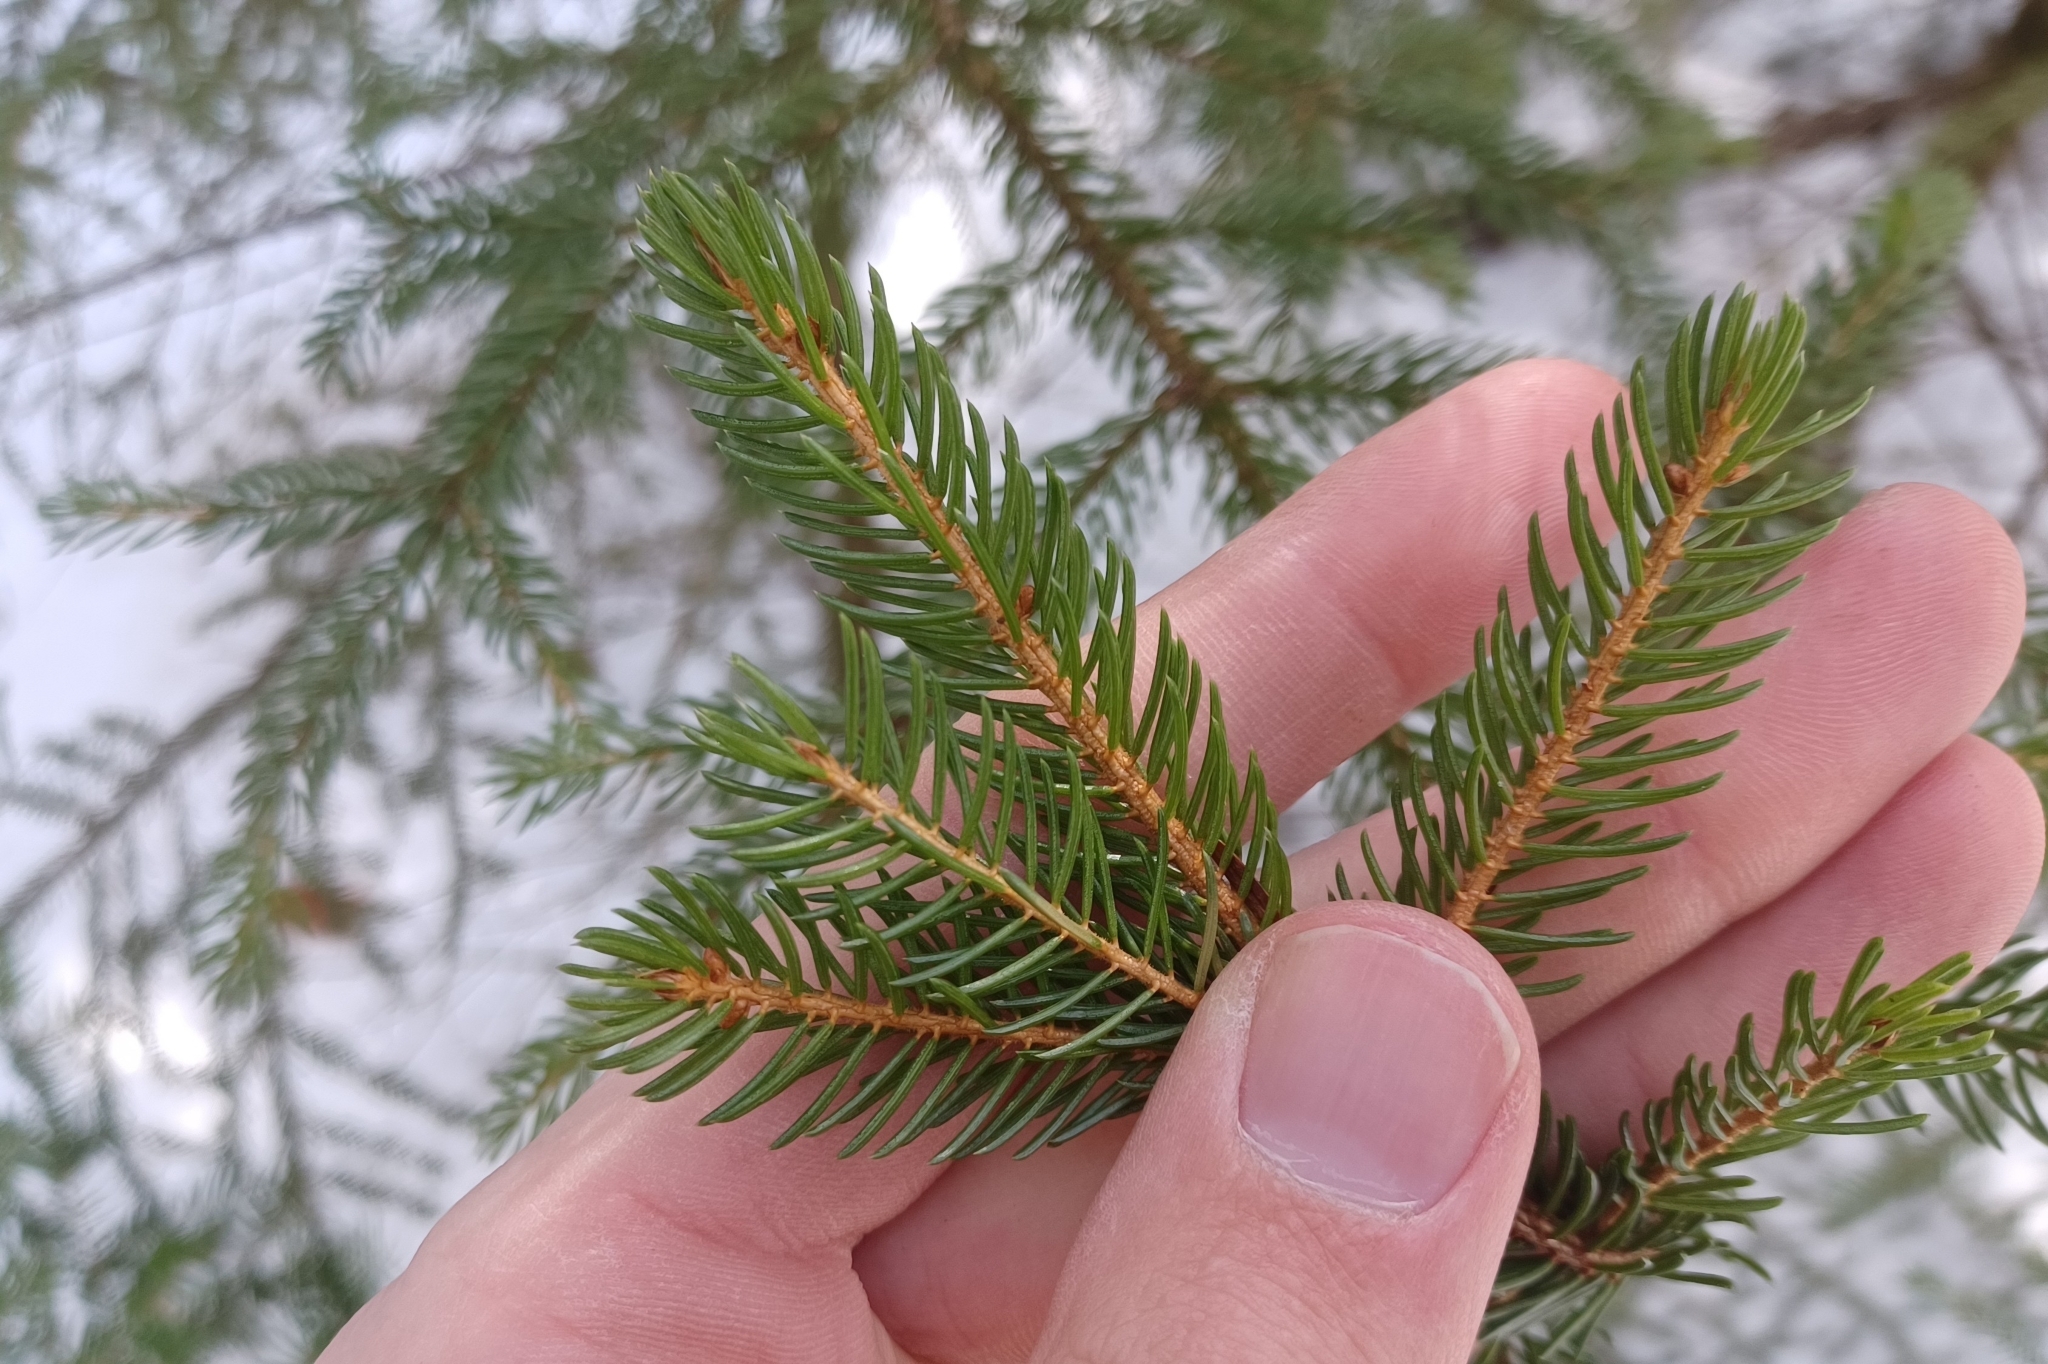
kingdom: Plantae
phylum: Tracheophyta
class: Pinopsida
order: Pinales
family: Pinaceae
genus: Picea
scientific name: Picea rubens
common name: Red spruce
